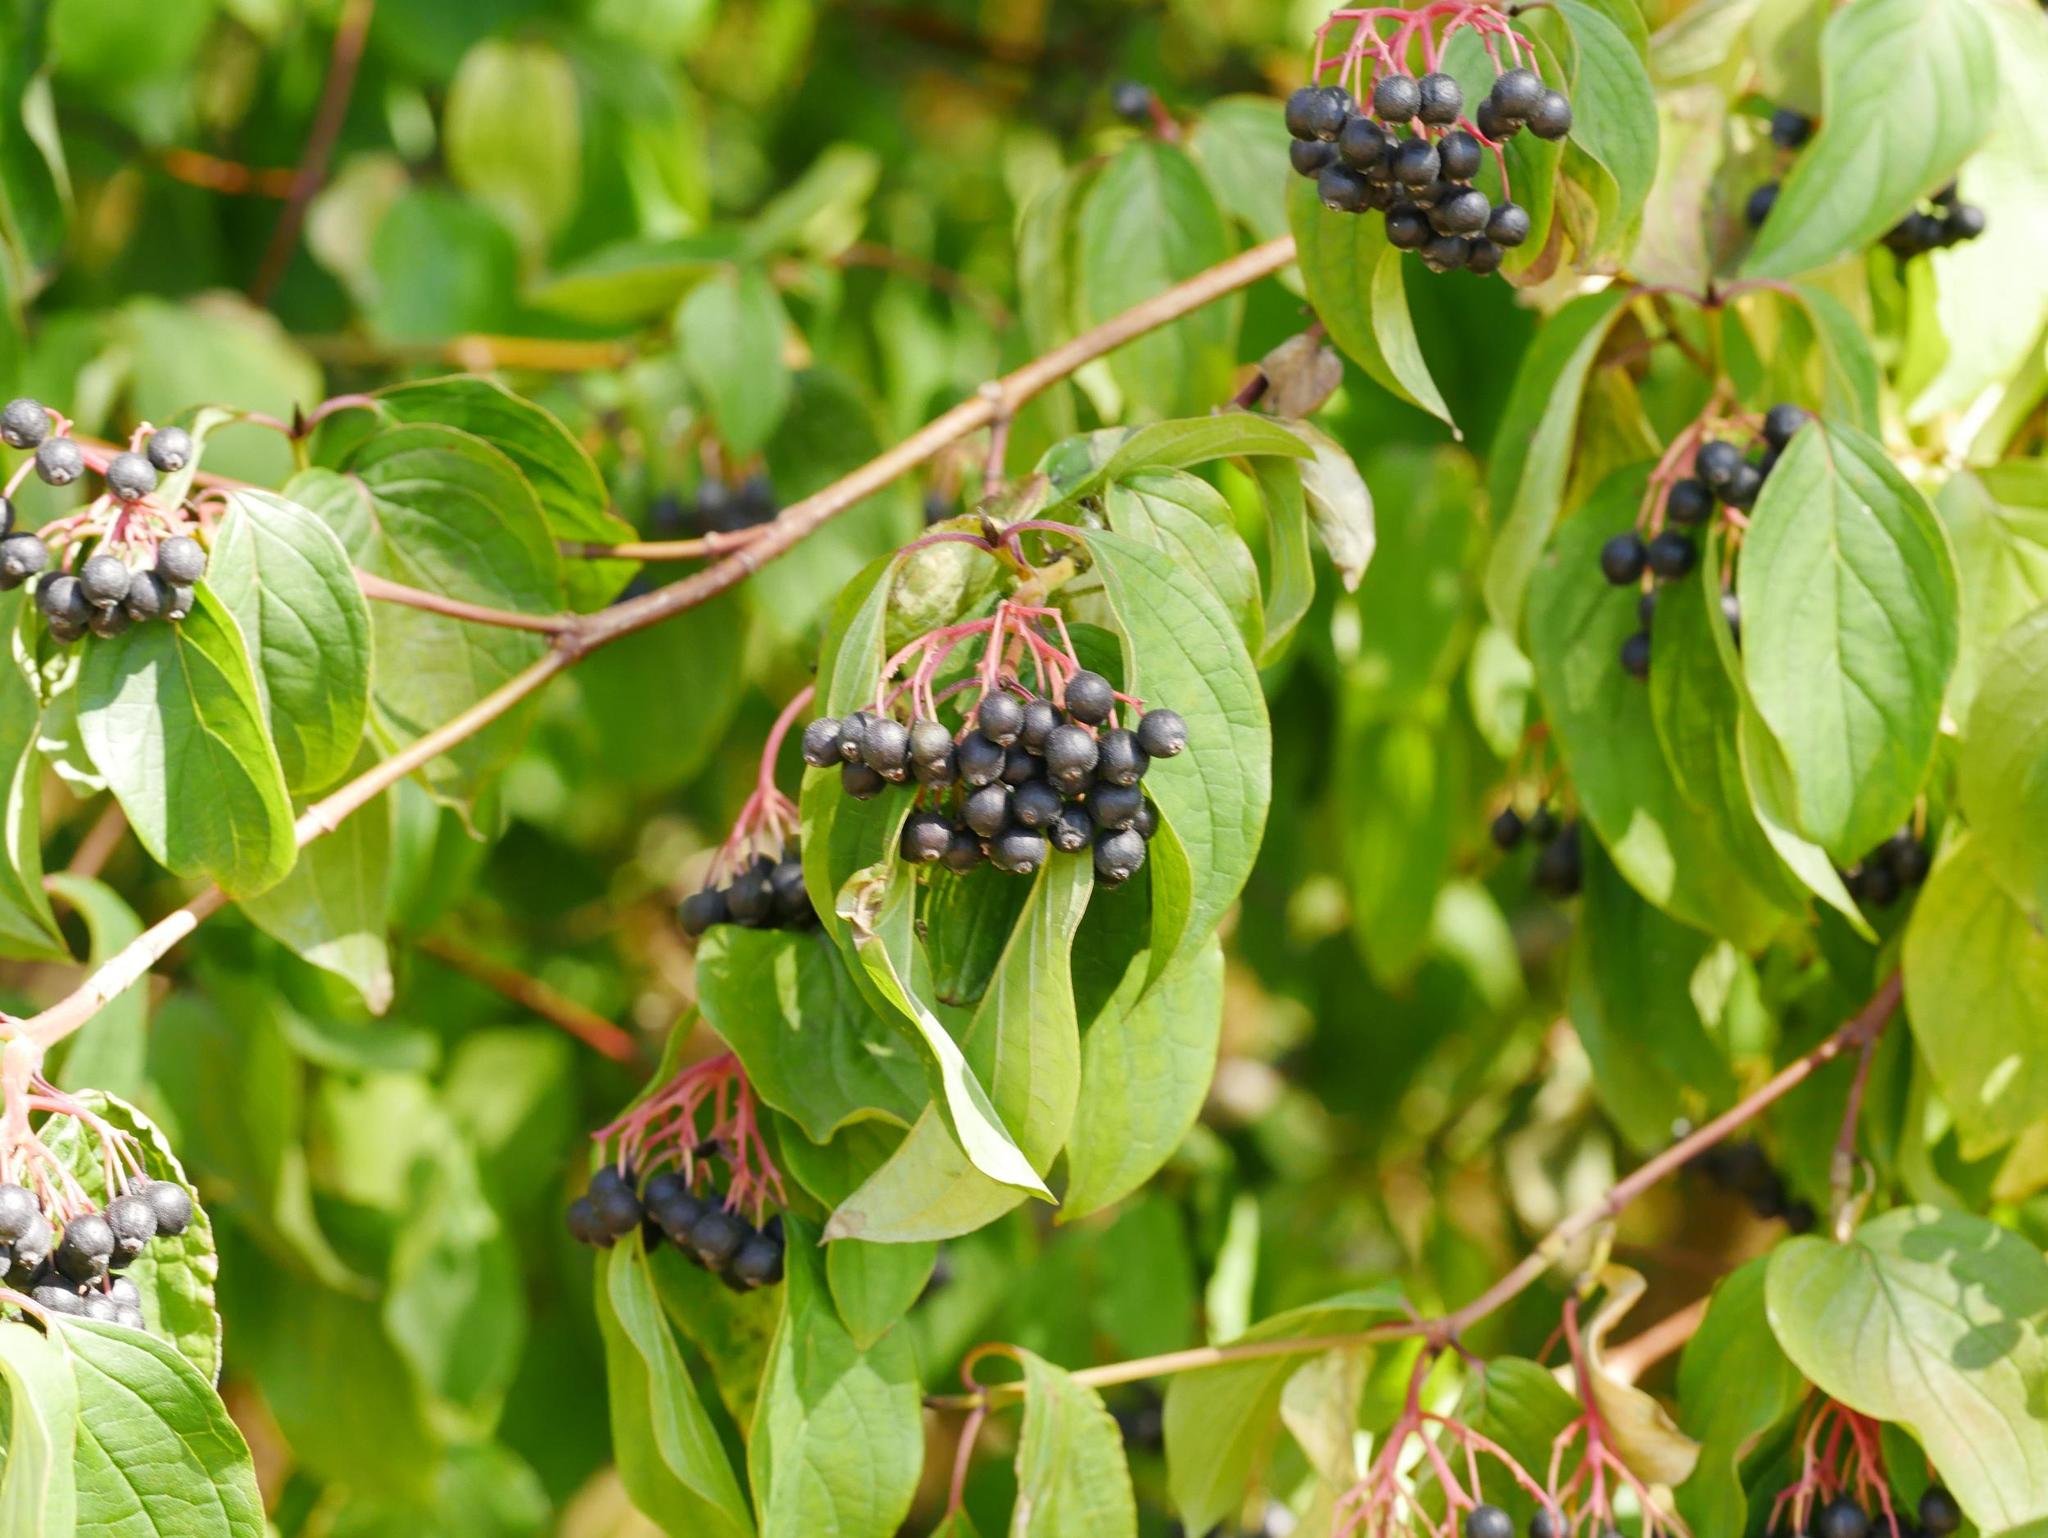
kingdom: Plantae
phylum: Tracheophyta
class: Magnoliopsida
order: Cornales
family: Cornaceae
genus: Cornus
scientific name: Cornus sanguinea
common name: Dogwood
